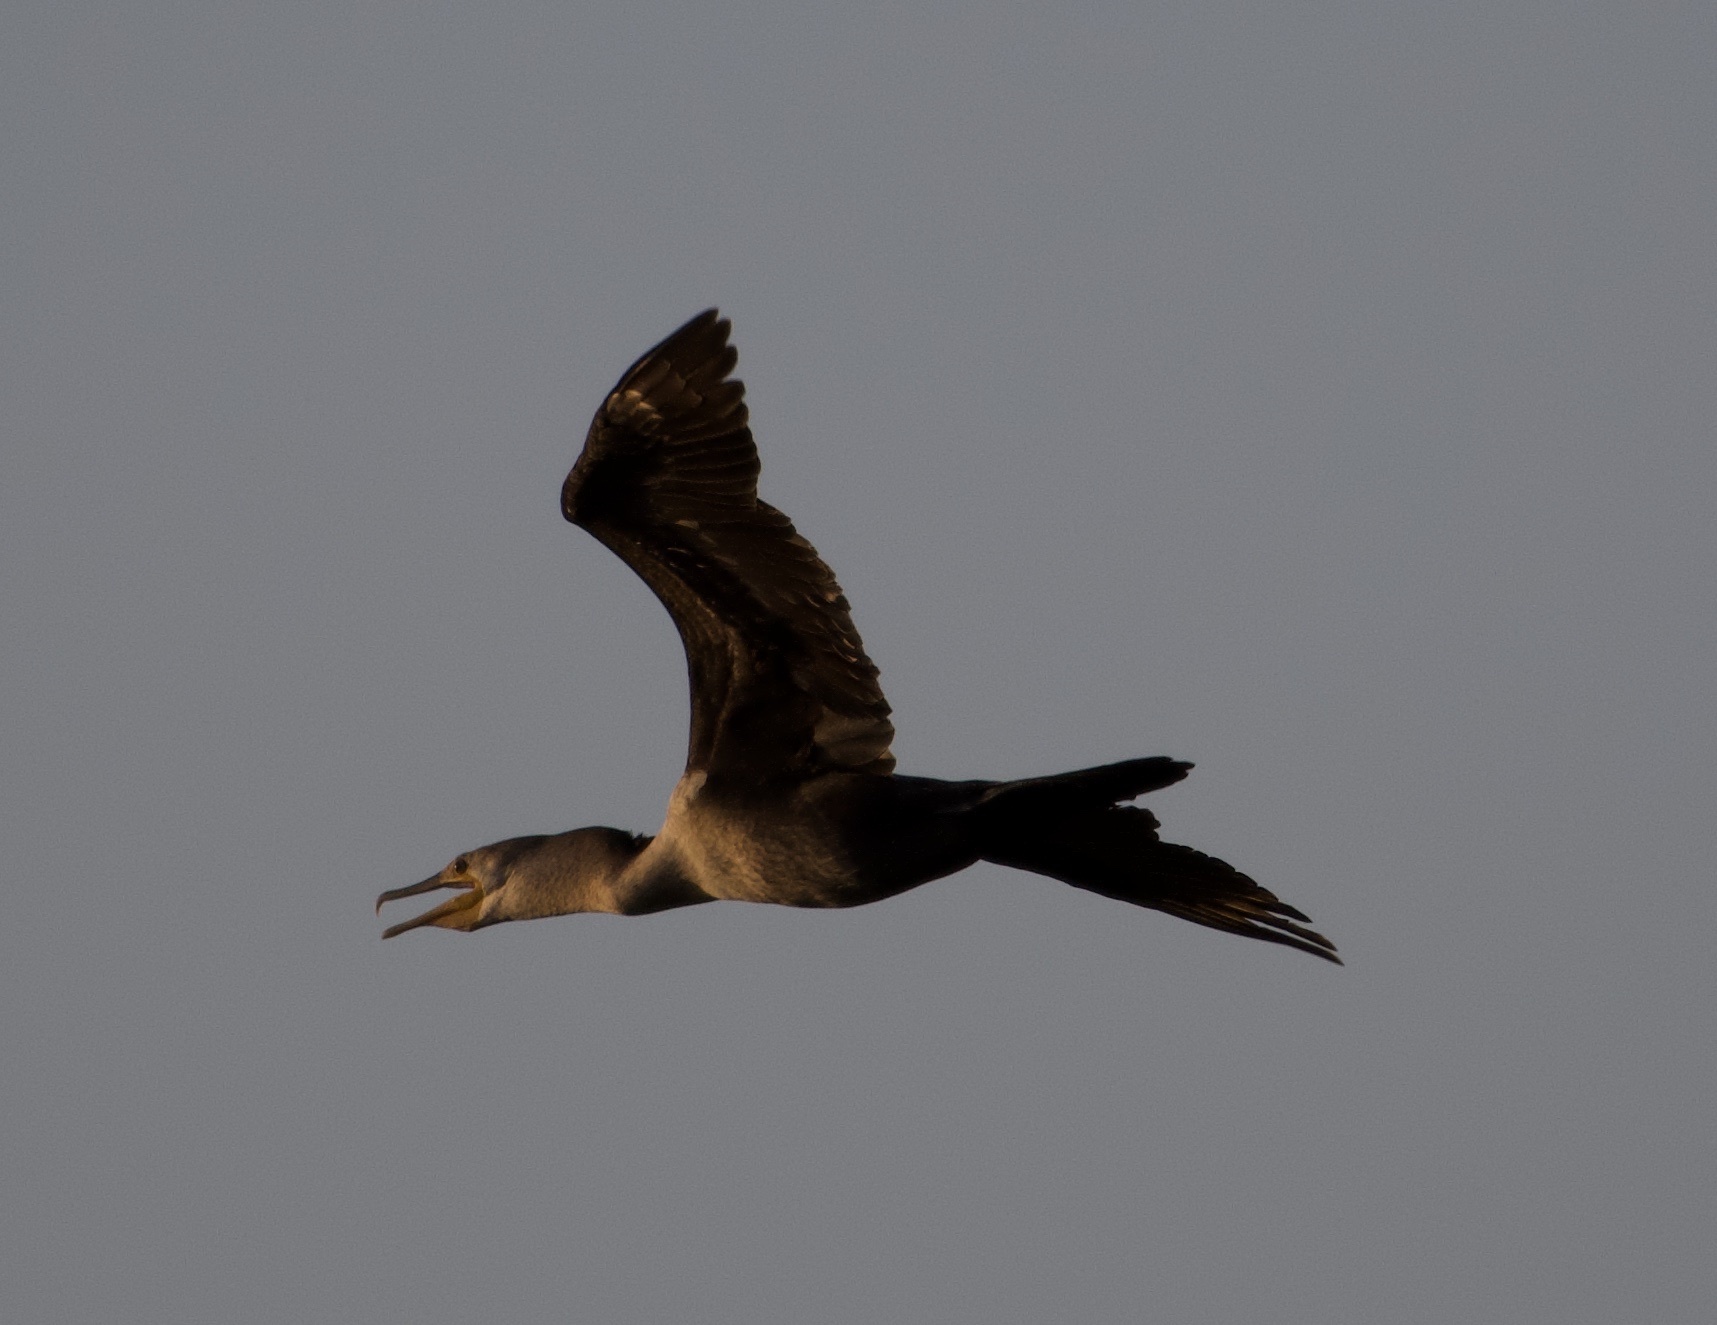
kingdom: Animalia
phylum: Chordata
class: Aves
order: Suliformes
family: Phalacrocoracidae
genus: Phalacrocorax
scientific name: Phalacrocorax brasilianus
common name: Neotropic cormorant
